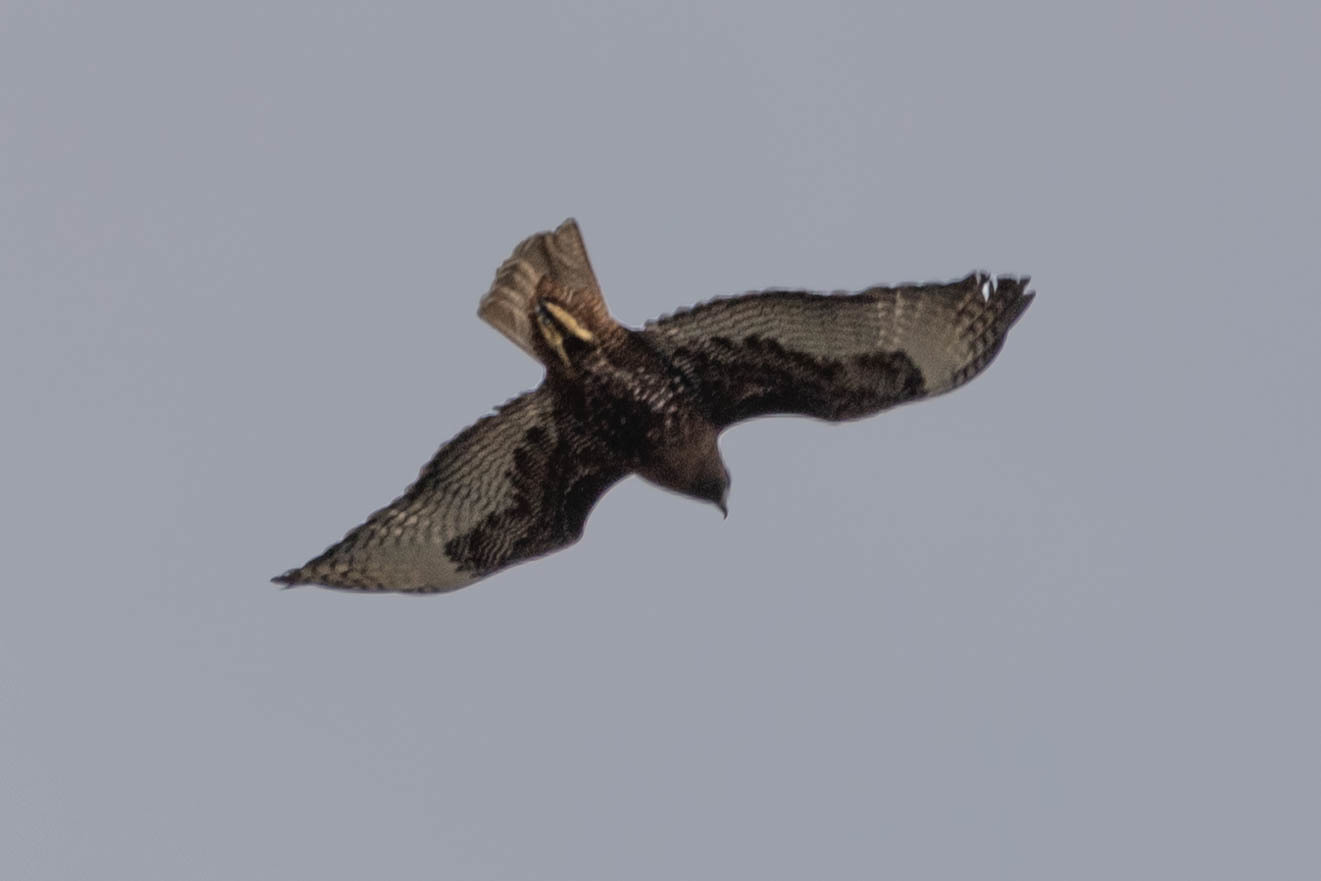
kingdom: Animalia
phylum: Chordata
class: Aves
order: Accipitriformes
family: Accipitridae
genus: Buteo
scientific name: Buteo jamaicensis
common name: Red-tailed hawk
